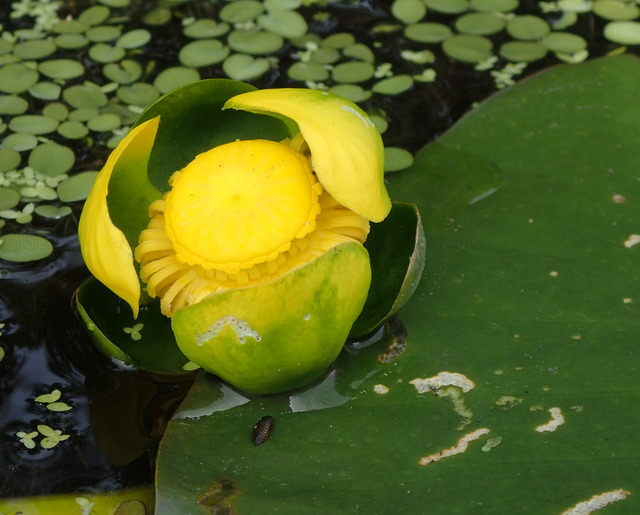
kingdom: Plantae
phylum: Tracheophyta
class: Magnoliopsida
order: Nymphaeales
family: Nymphaeaceae
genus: Nuphar
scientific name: Nuphar advena
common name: Spatter-dock
